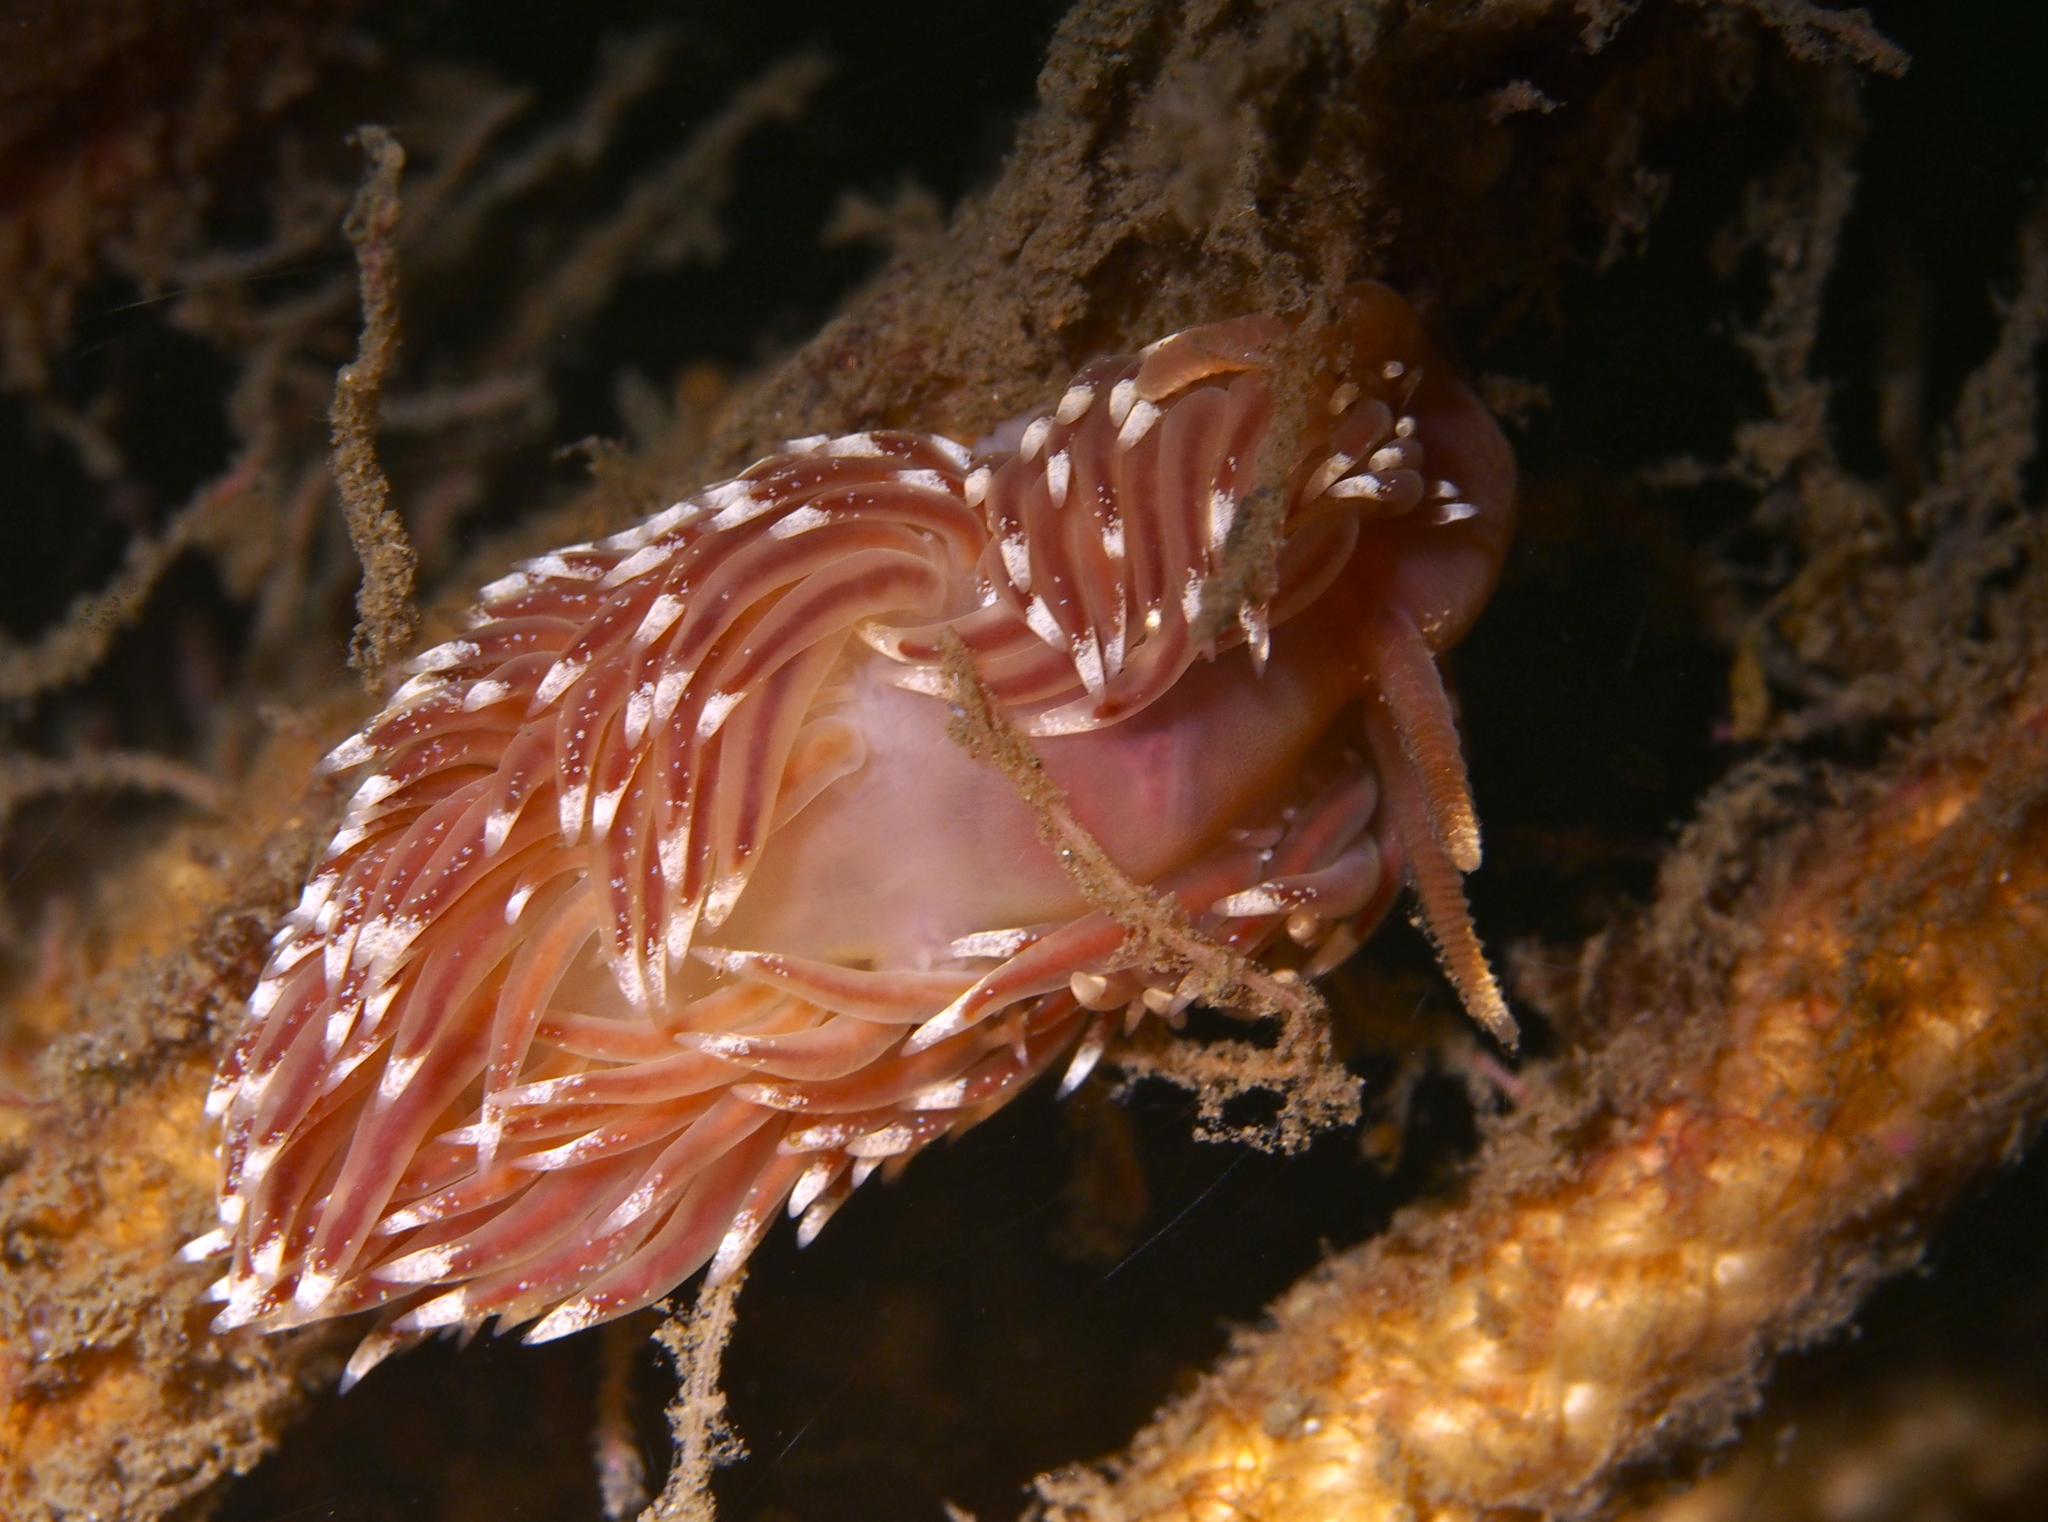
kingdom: Animalia
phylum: Mollusca
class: Gastropoda
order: Nudibranchia
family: Facelinidae
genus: Facelina
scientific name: Facelina bostoniensis
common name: Boston facelina
